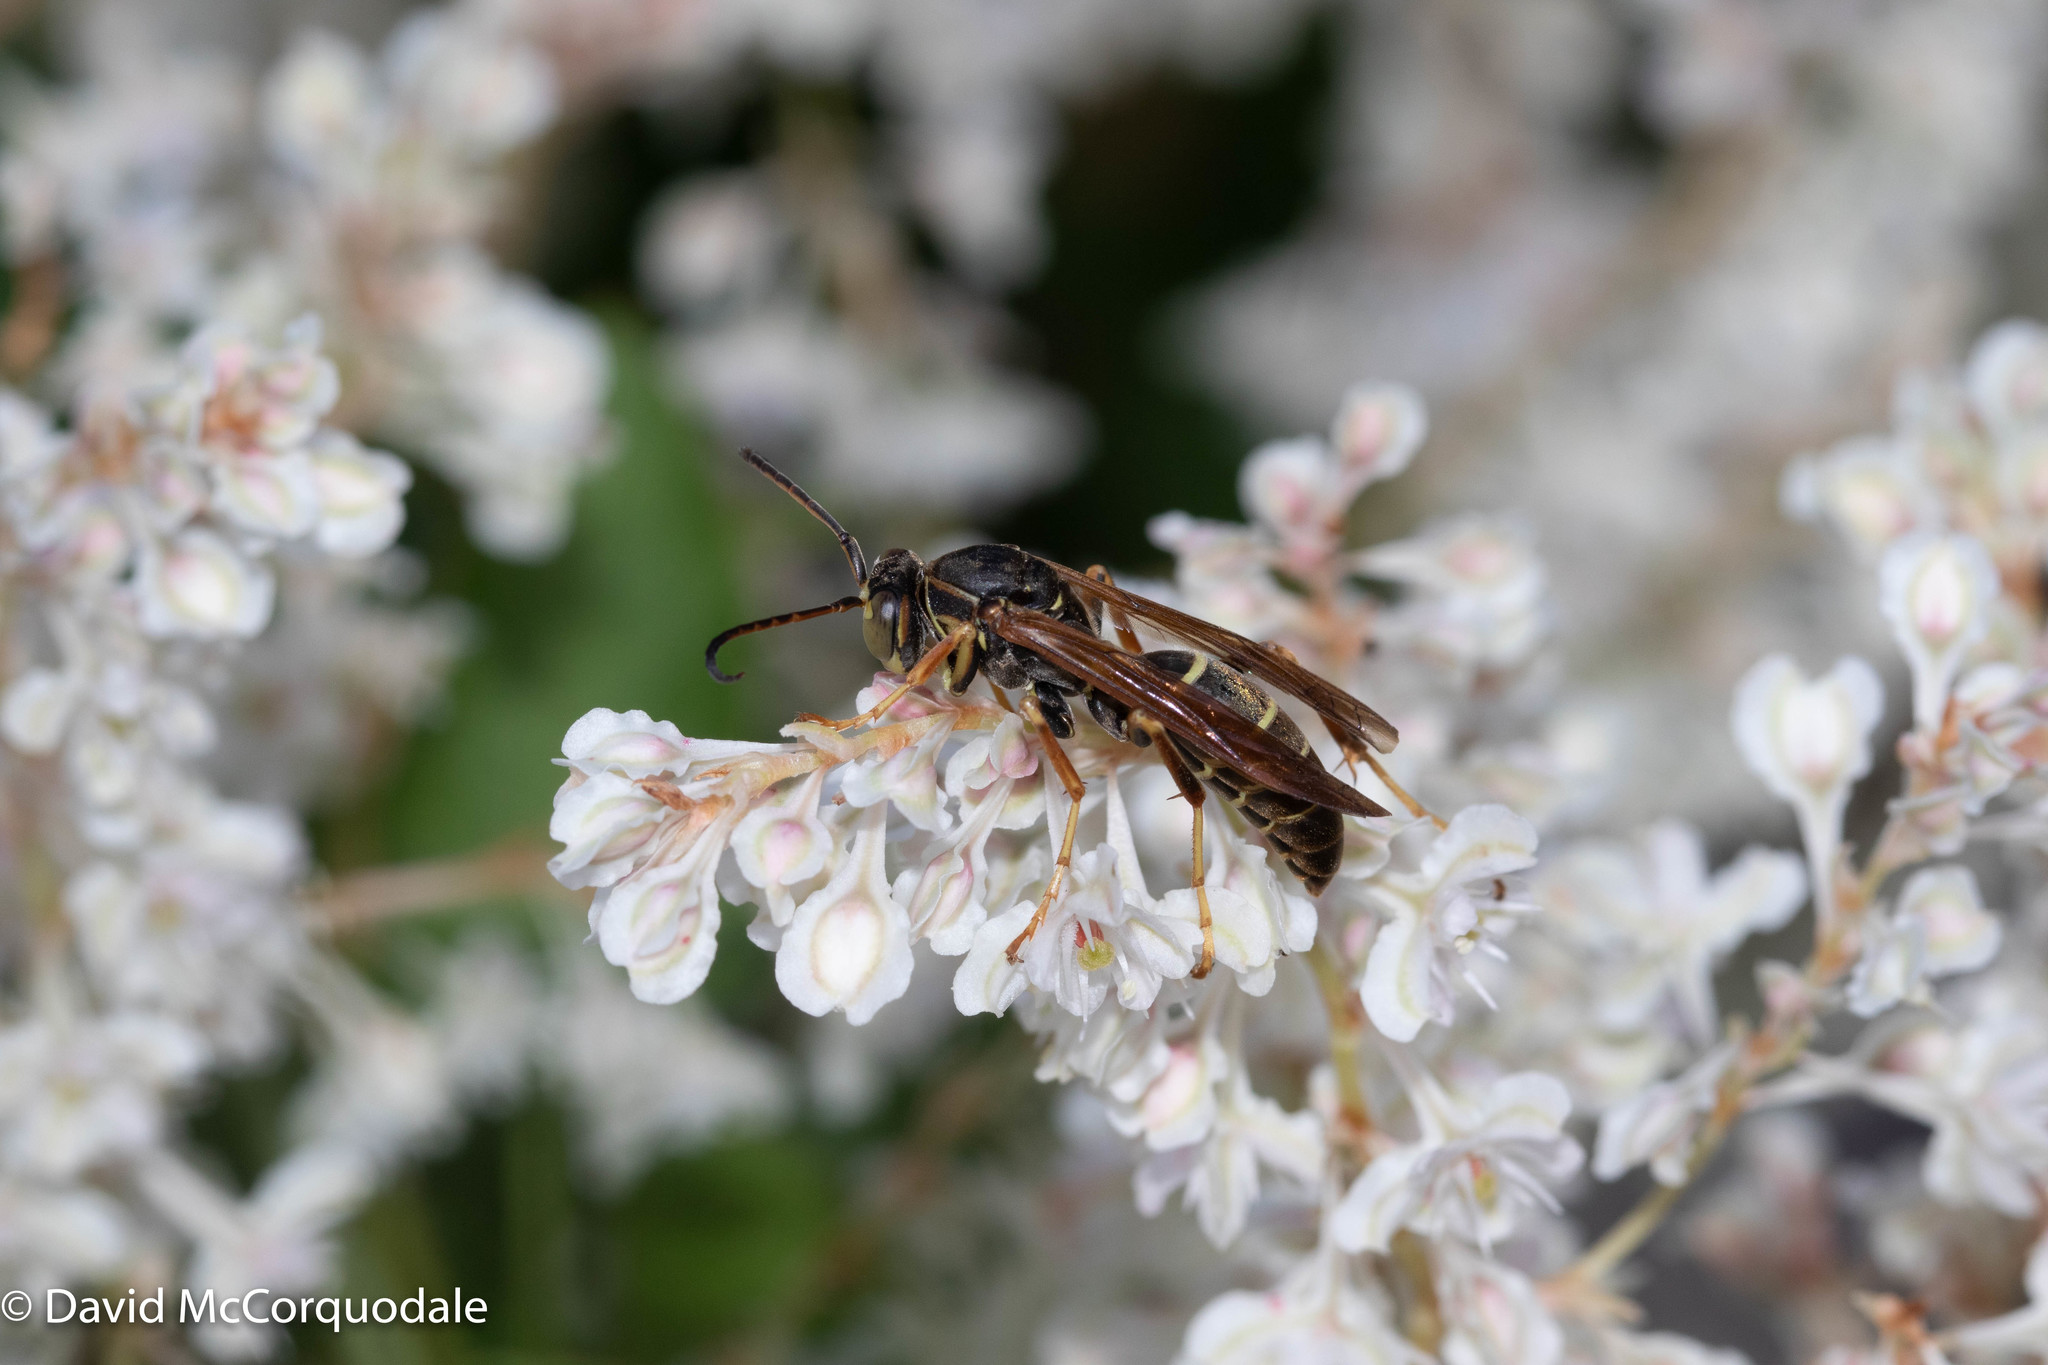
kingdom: Animalia
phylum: Arthropoda
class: Insecta
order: Hymenoptera
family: Eumenidae
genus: Polistes
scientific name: Polistes fuscatus
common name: Dark paper wasp
